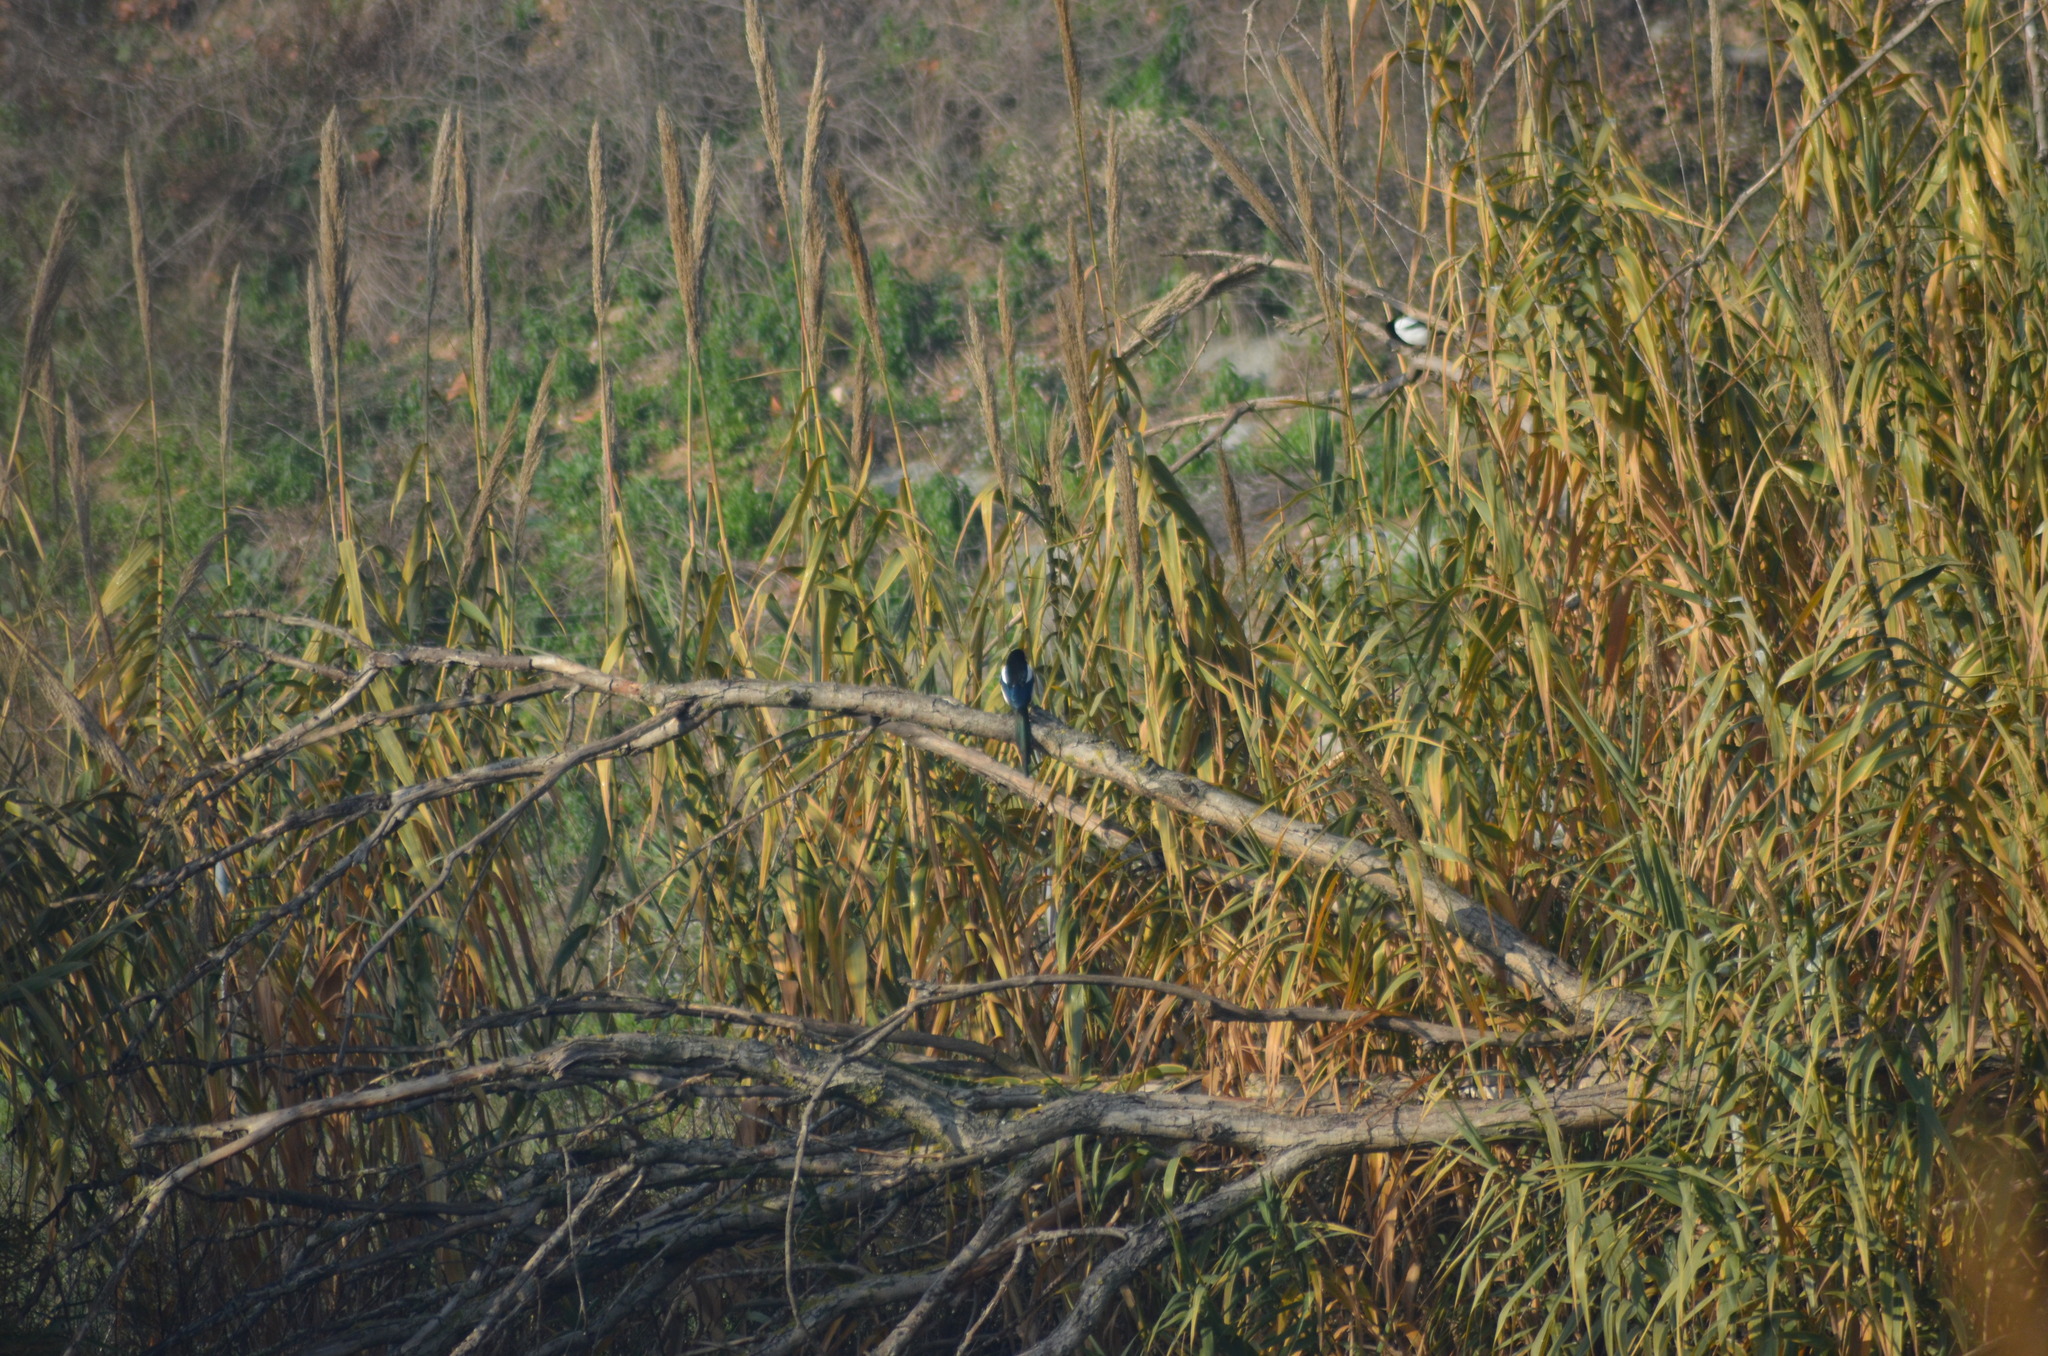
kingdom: Animalia
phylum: Chordata
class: Aves
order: Passeriformes
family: Corvidae
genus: Pica
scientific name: Pica pica
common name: Eurasian magpie
